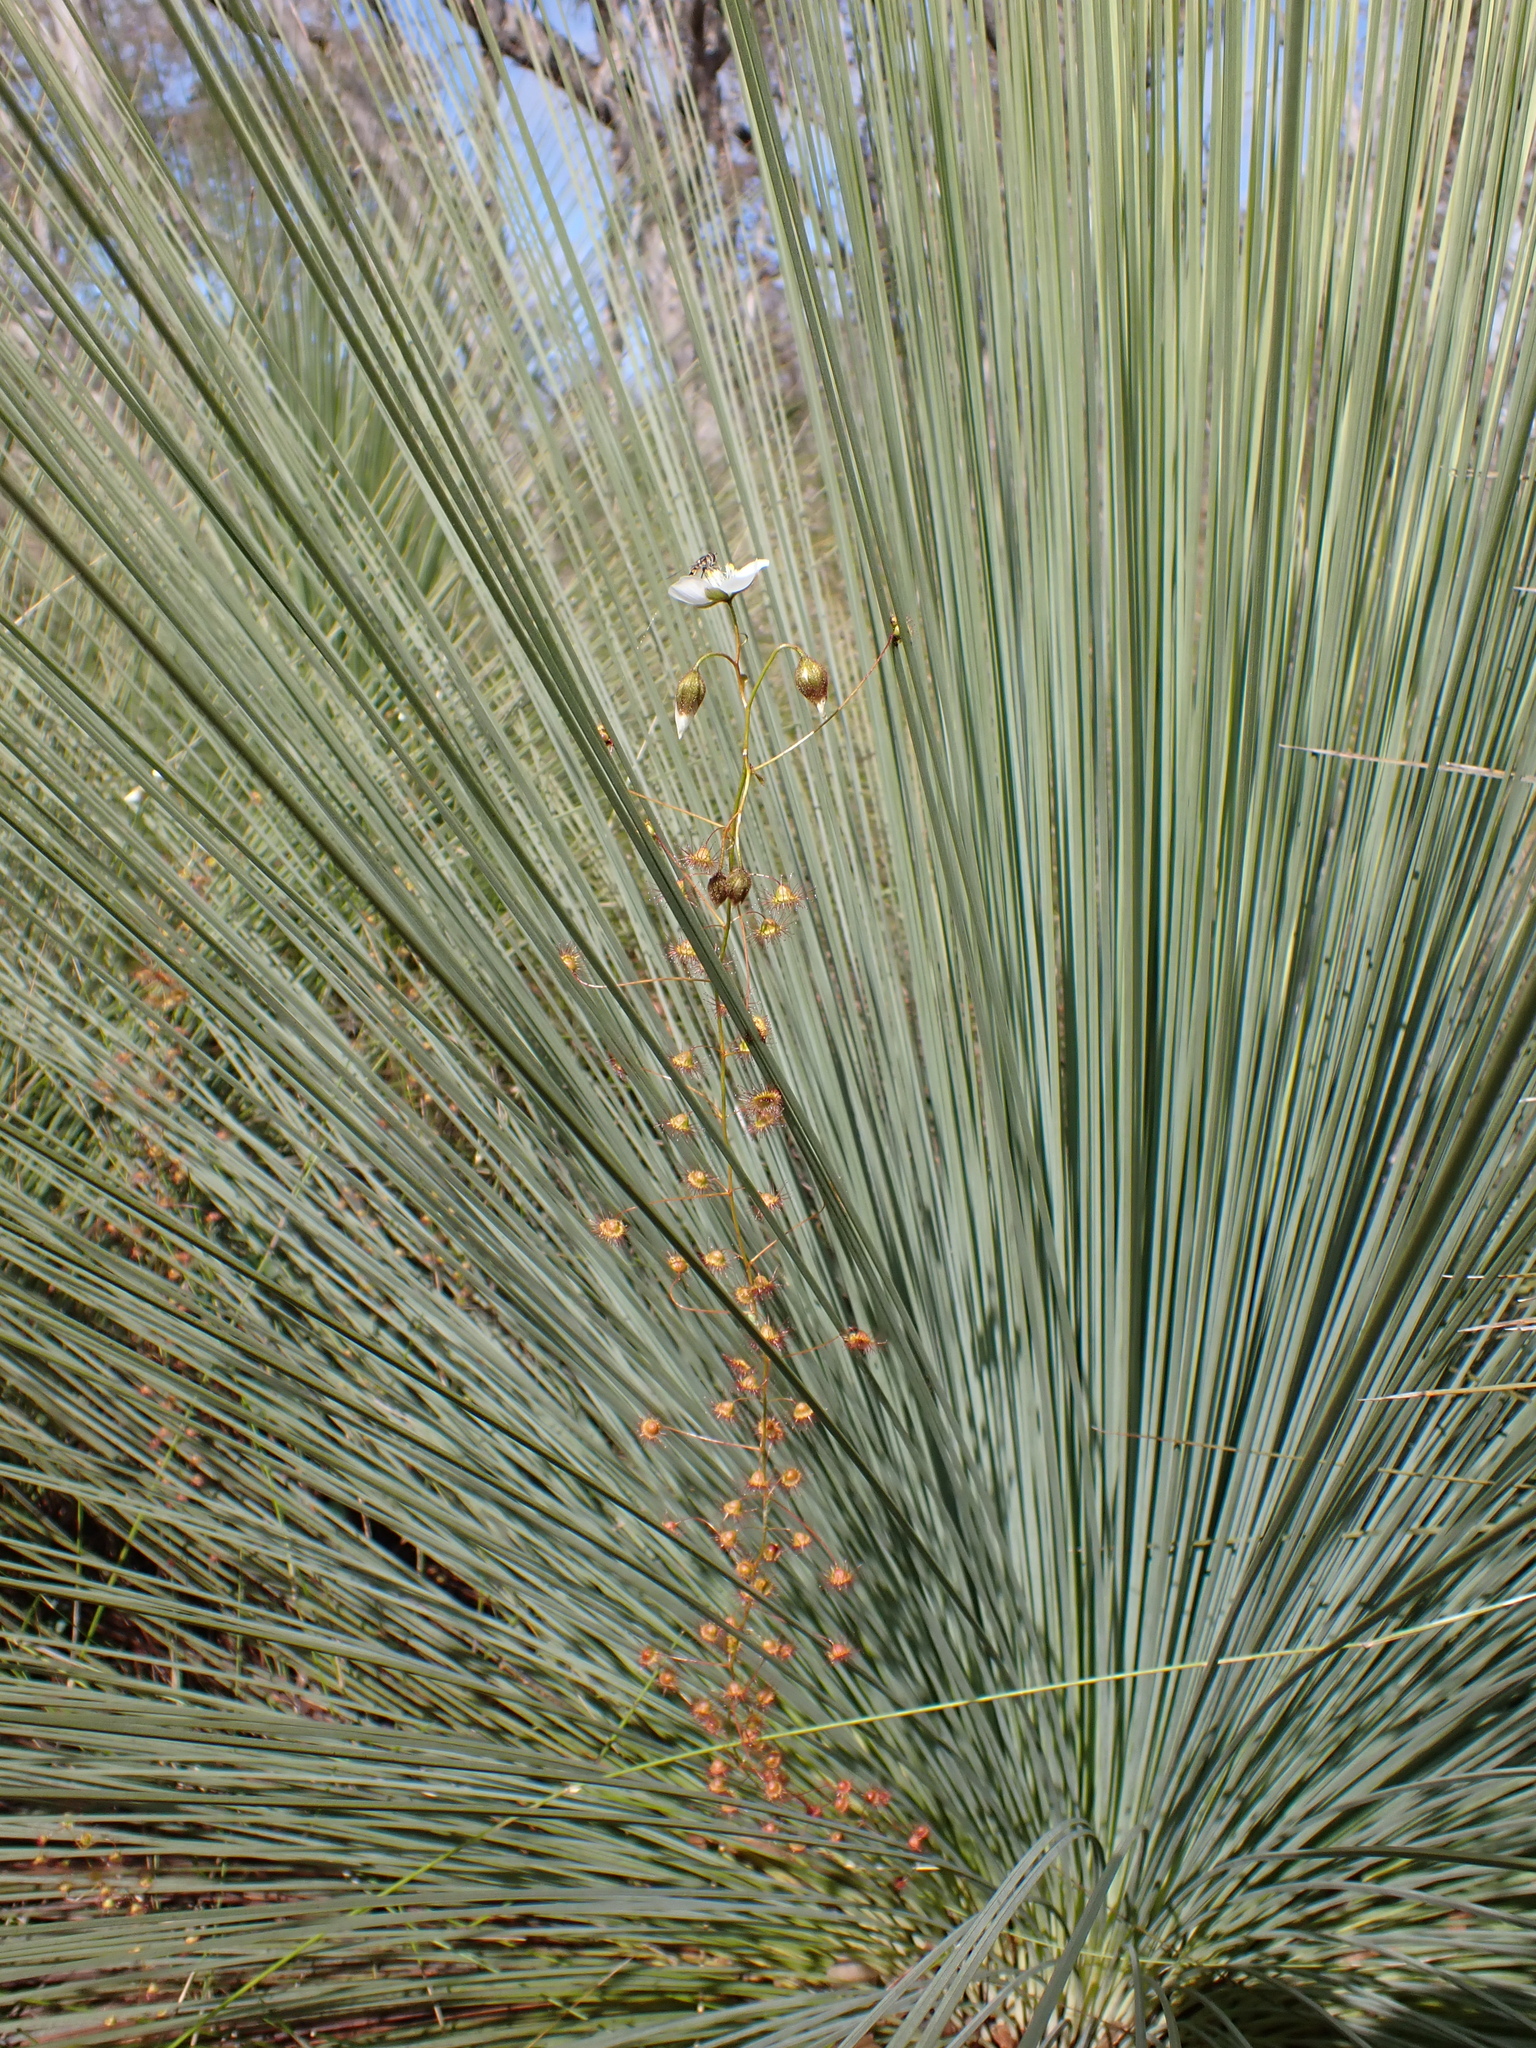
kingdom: Plantae
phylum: Tracheophyta
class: Magnoliopsida
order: Caryophyllales
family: Droseraceae
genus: Drosera
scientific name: Drosera planchonii
